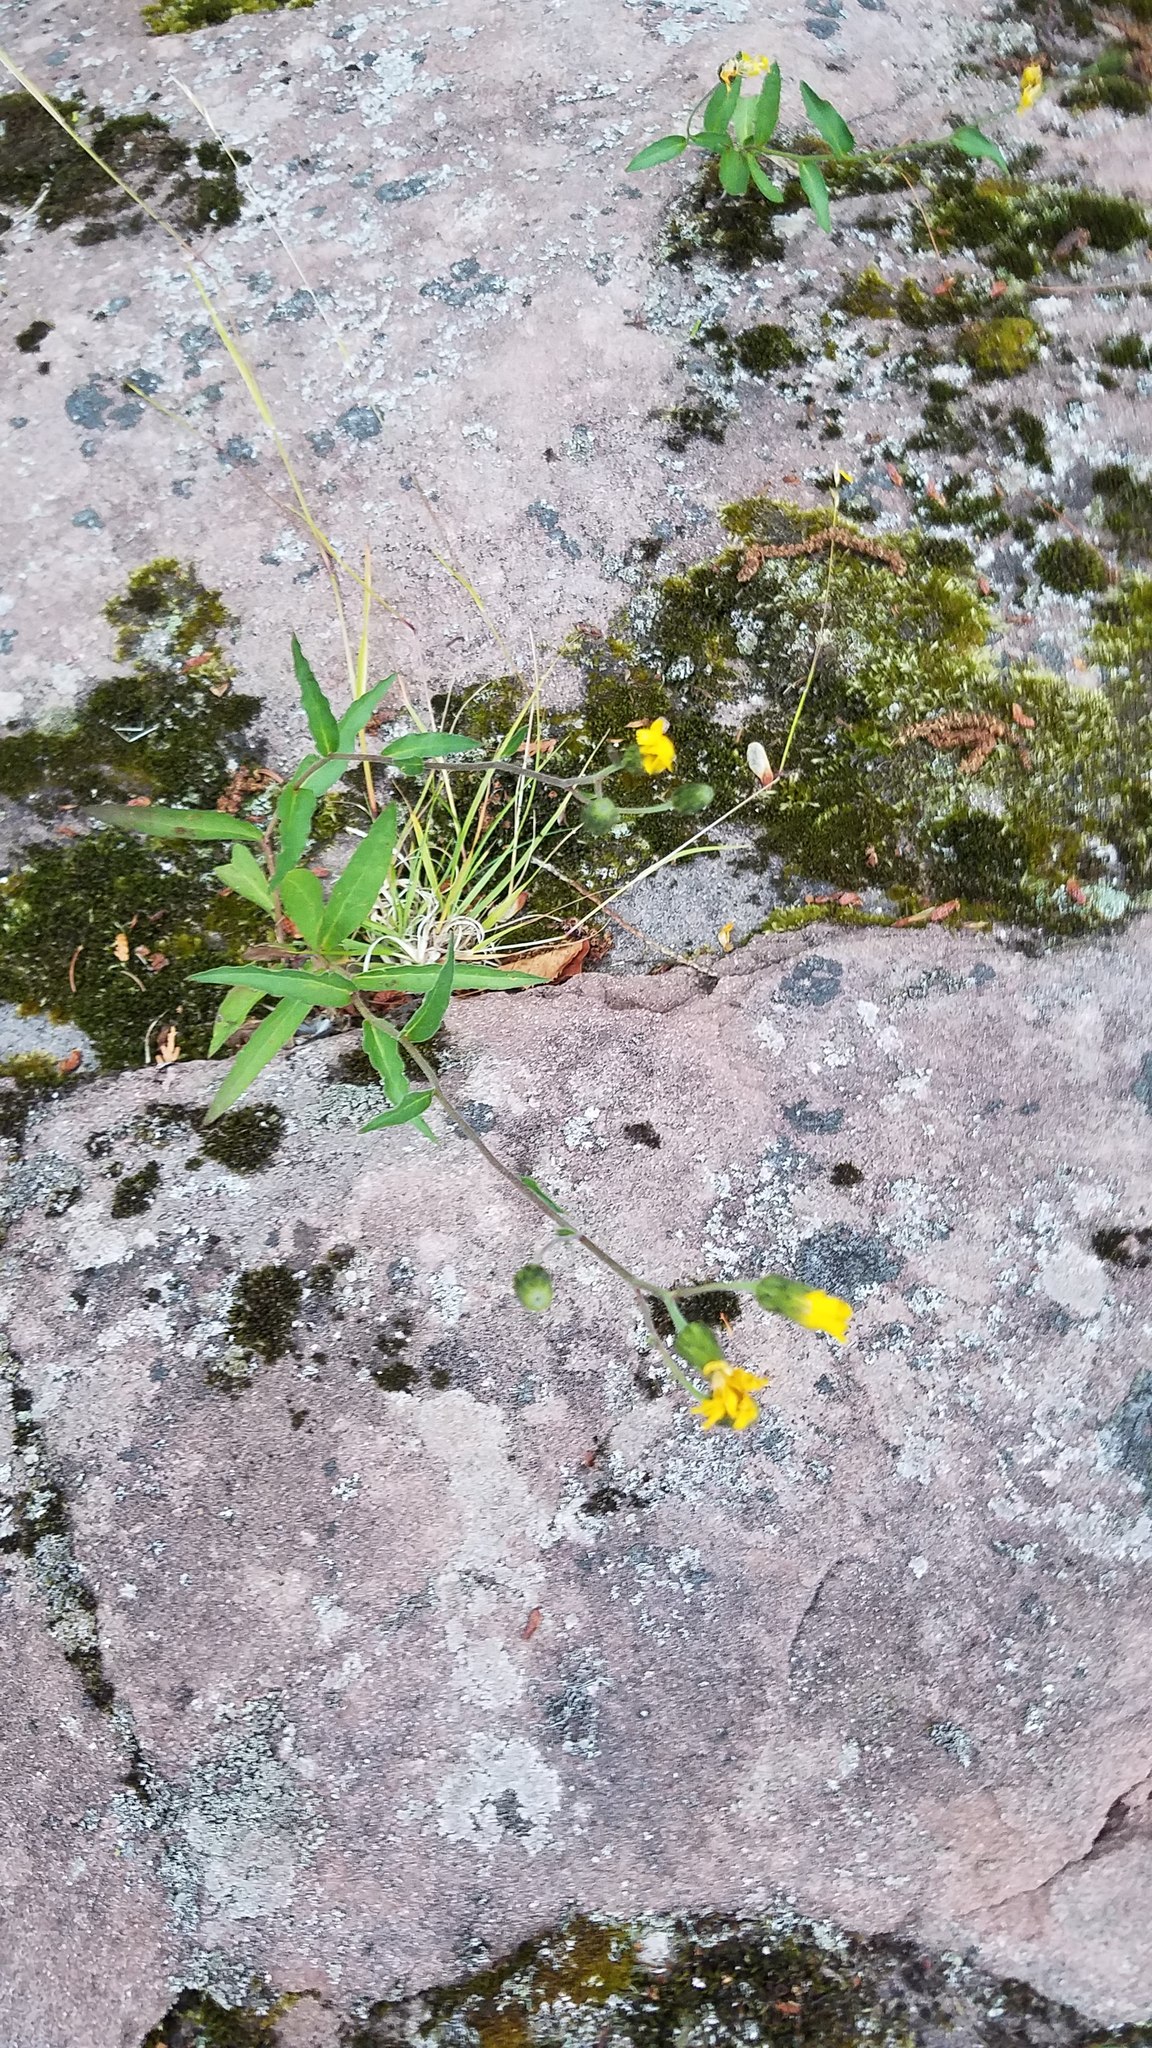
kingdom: Plantae
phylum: Tracheophyta
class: Magnoliopsida
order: Asterales
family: Asteraceae
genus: Hieracium
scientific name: Hieracium umbellatum
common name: Northern hawkweed
